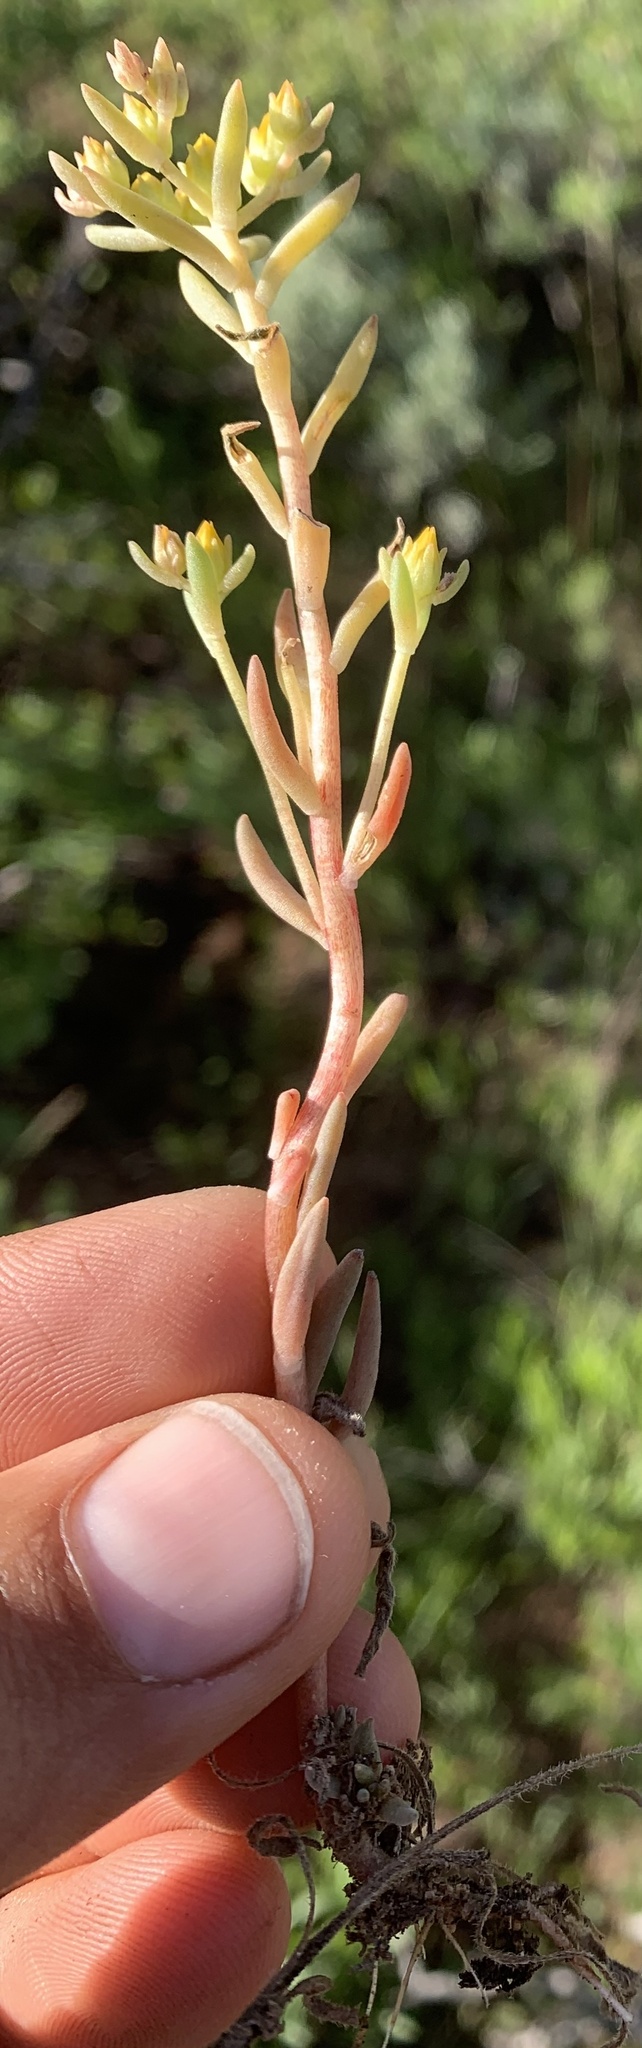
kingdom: Plantae
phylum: Tracheophyta
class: Magnoliopsida
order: Saxifragales
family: Crassulaceae
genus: Sedum
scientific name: Sedum lanceolatum
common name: Common stonecrop
